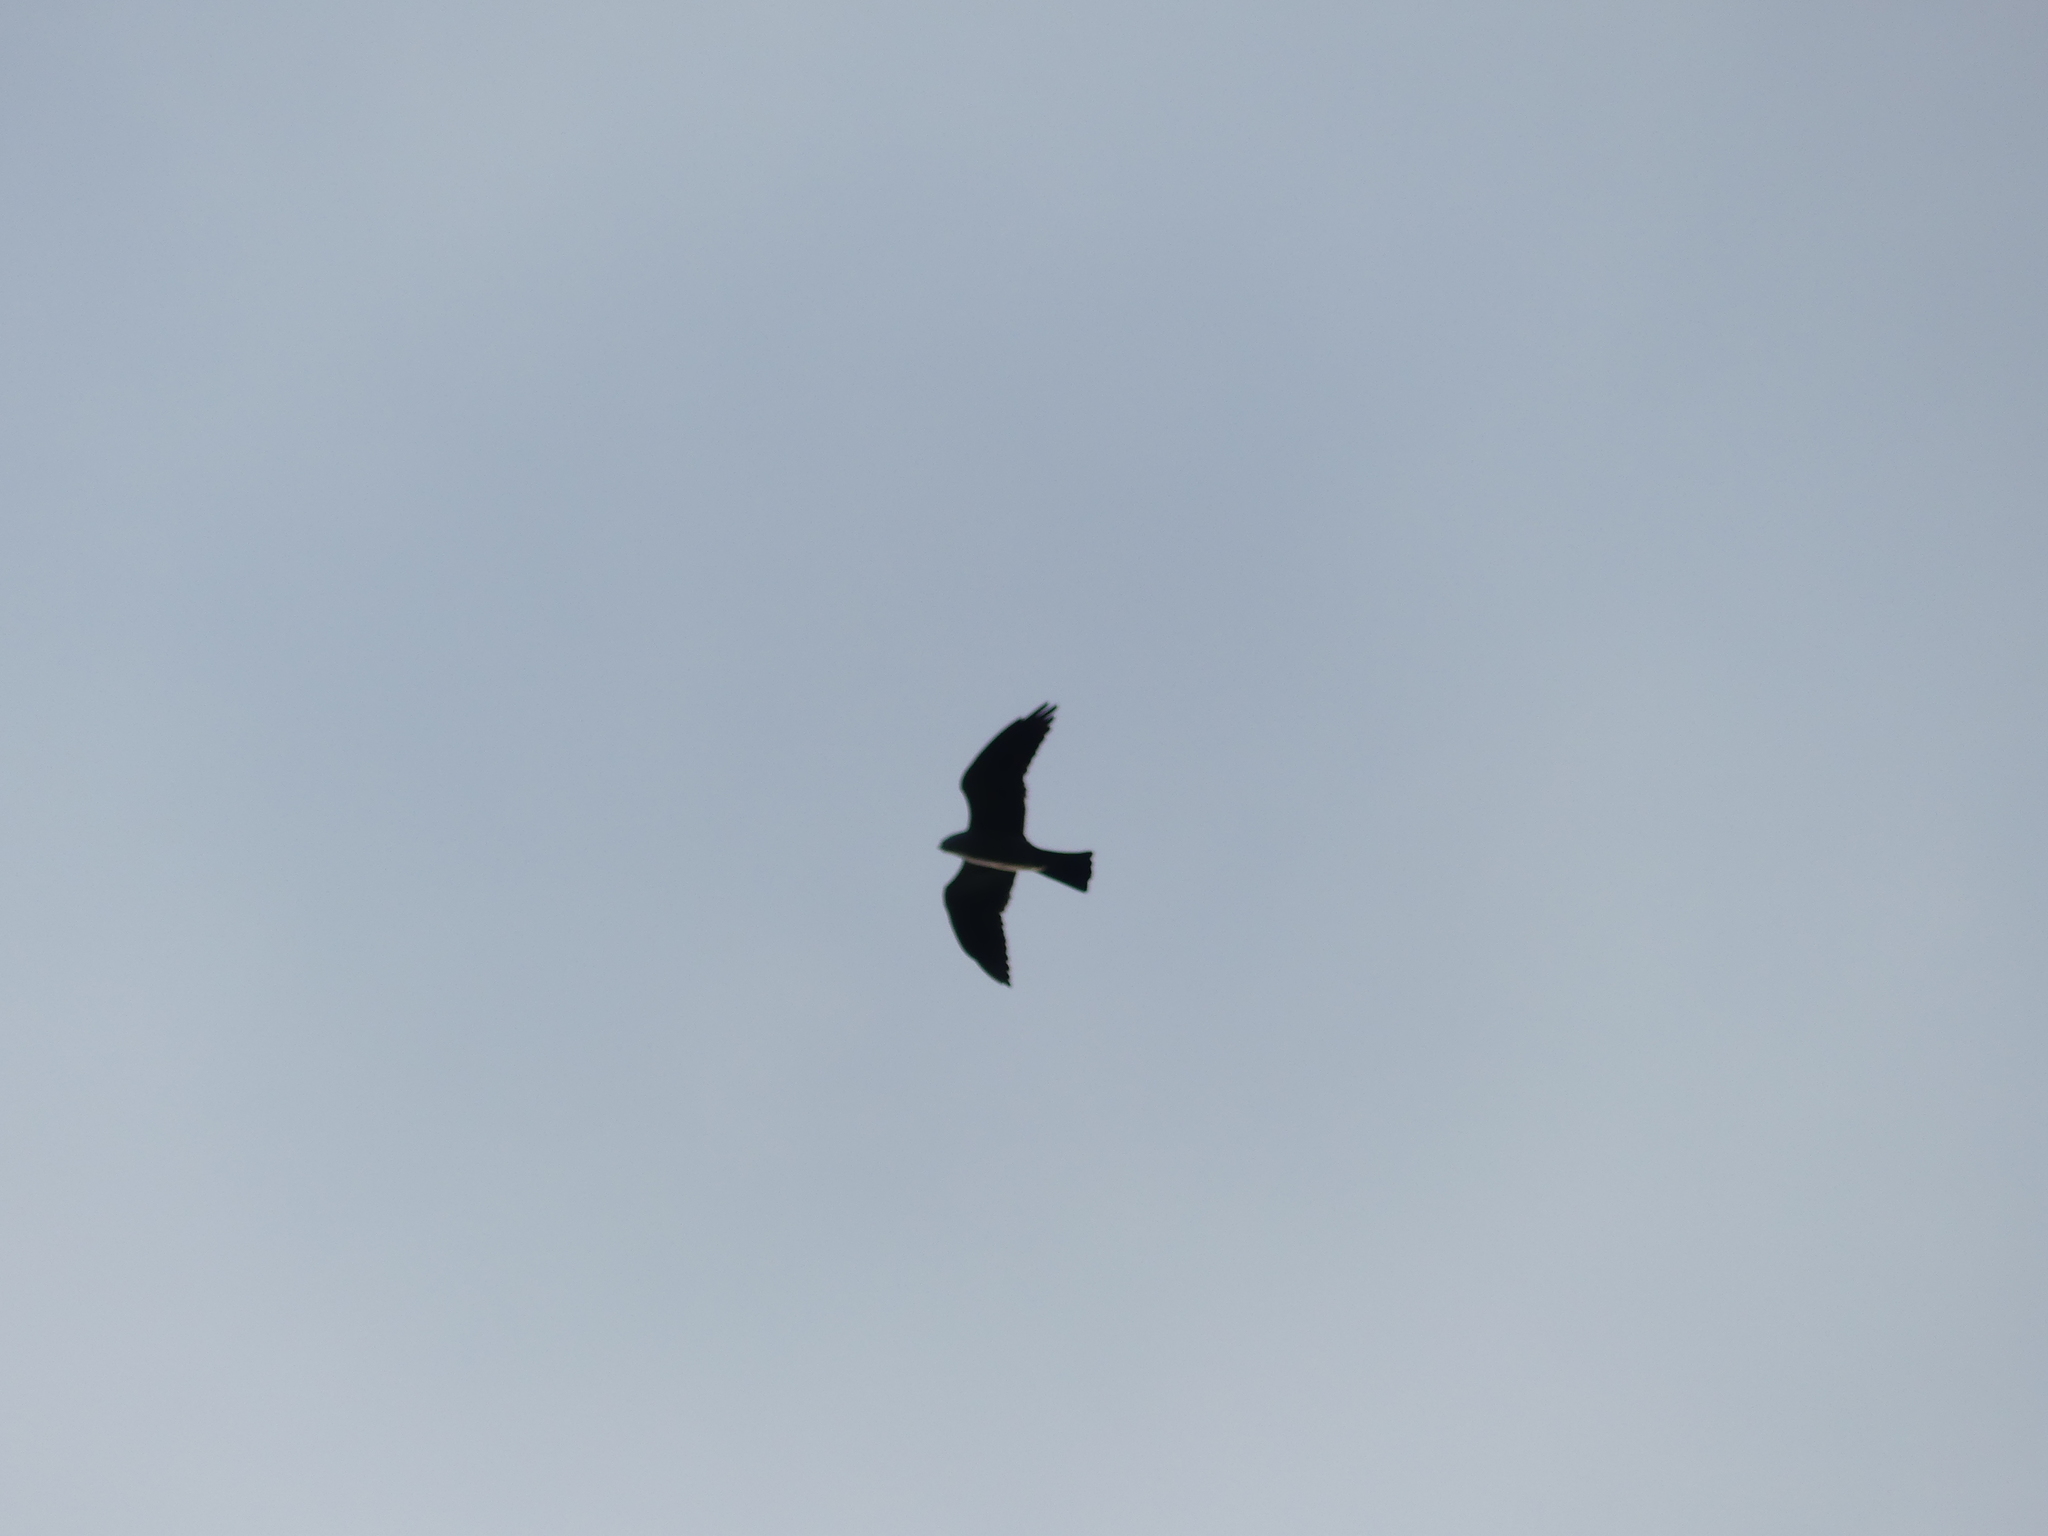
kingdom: Animalia
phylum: Chordata
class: Aves
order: Accipitriformes
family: Accipitridae
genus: Ictinia
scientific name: Ictinia mississippiensis
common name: Mississippi kite
